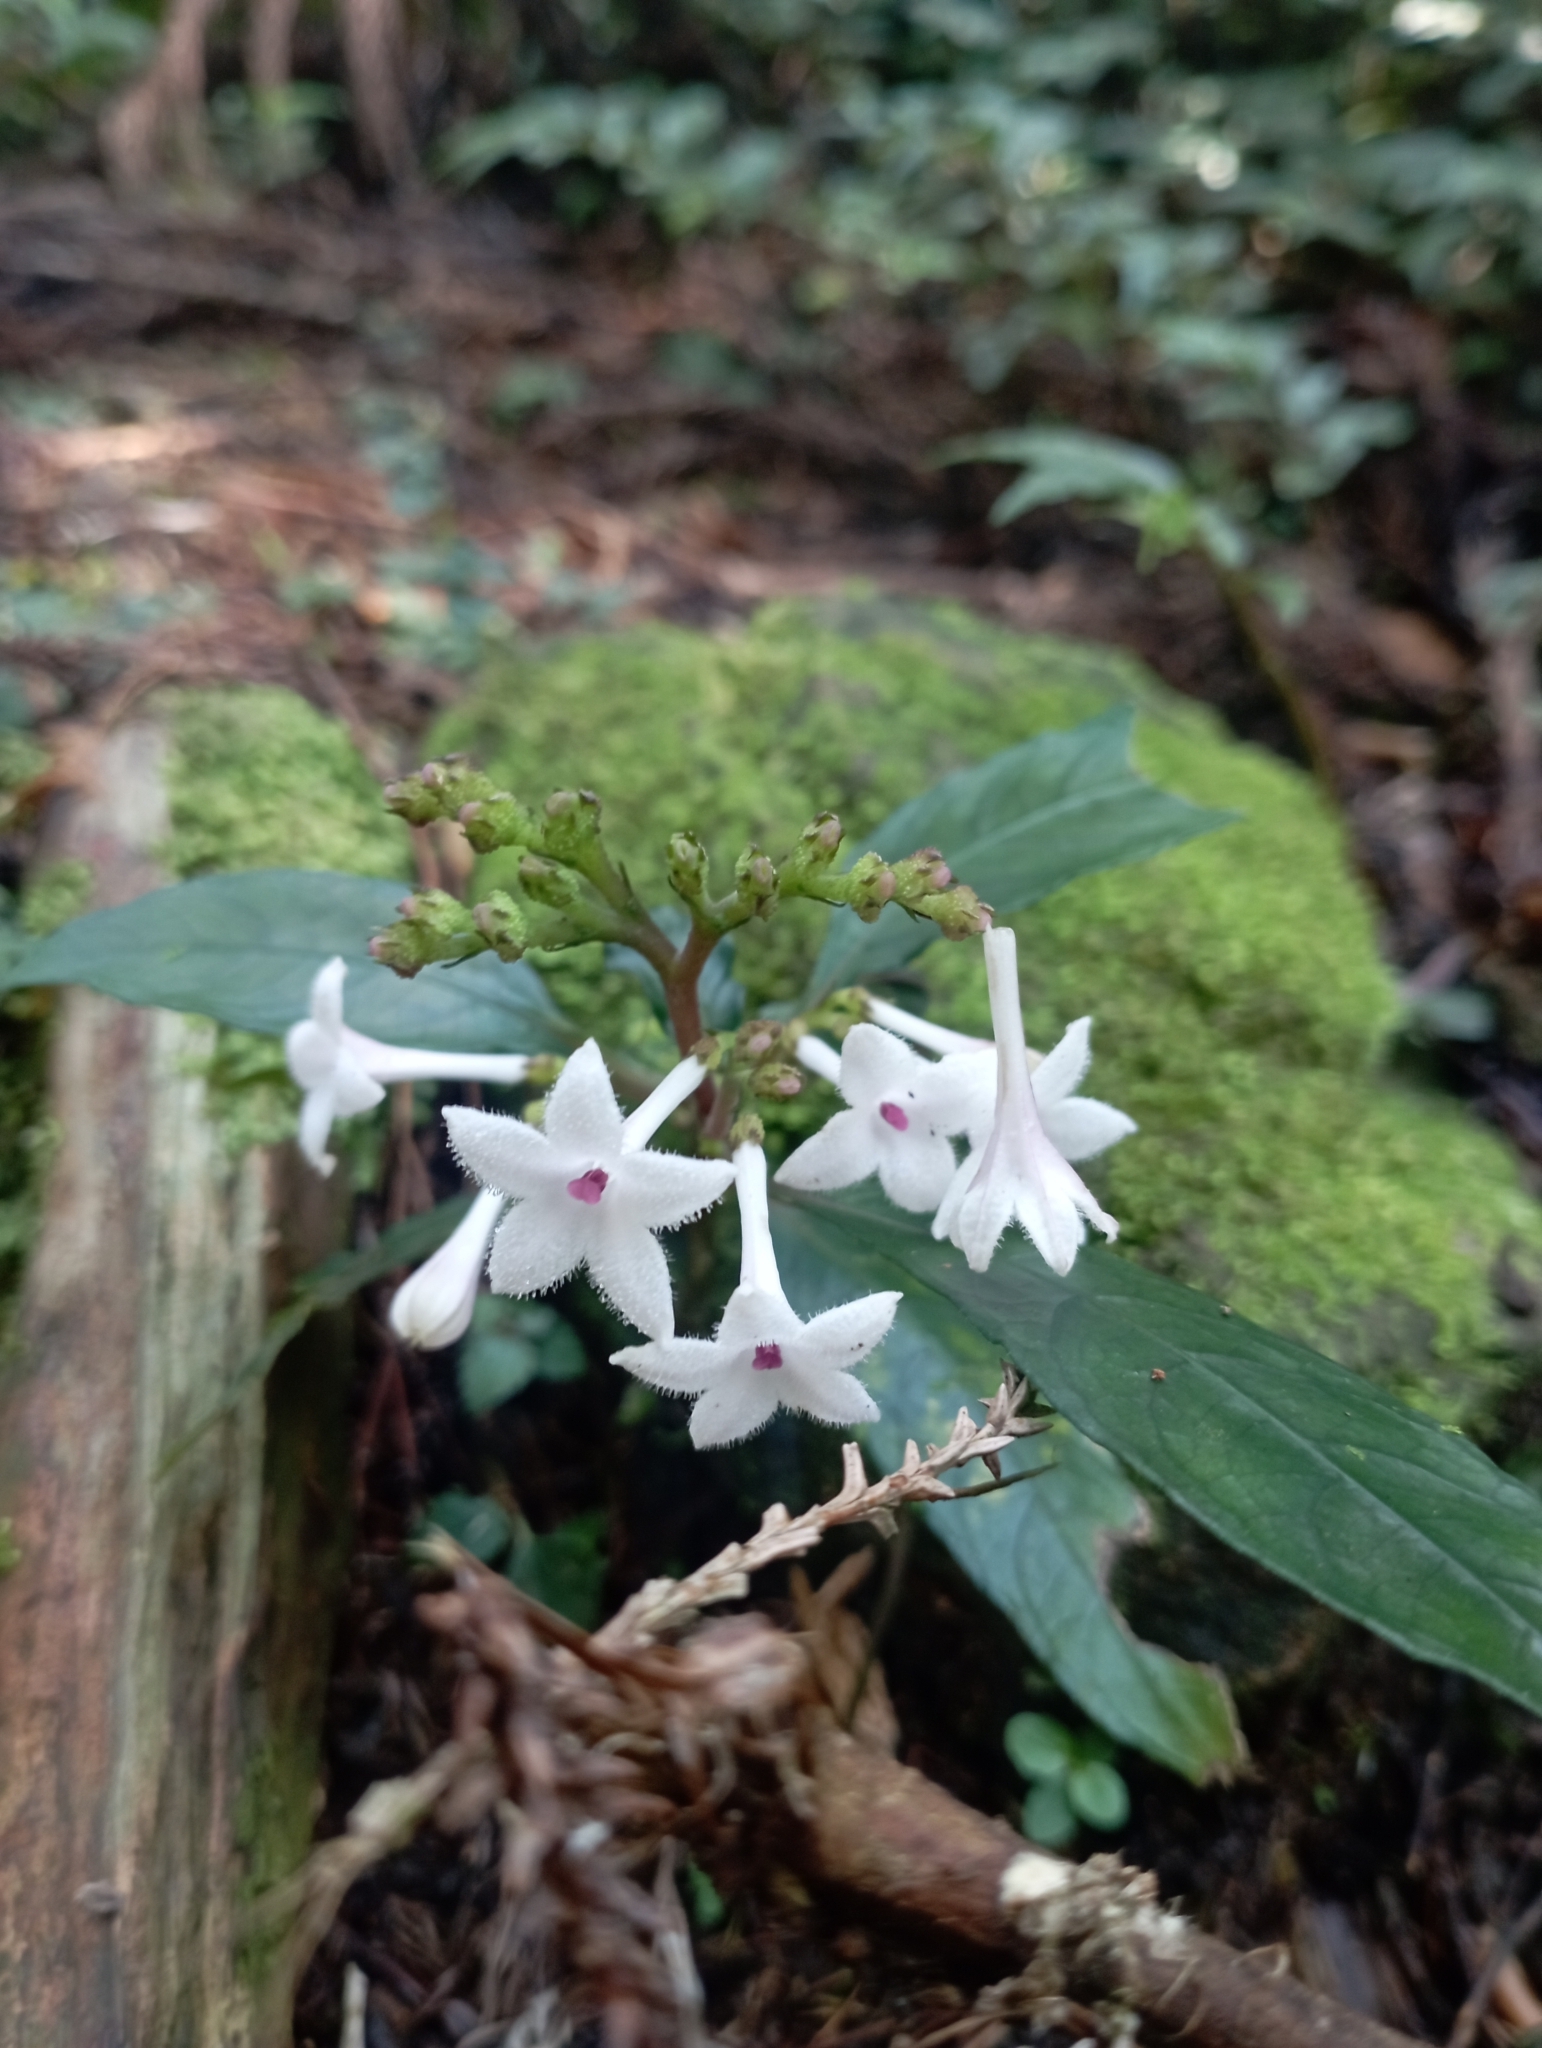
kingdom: Plantae
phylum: Tracheophyta
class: Magnoliopsida
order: Gentianales
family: Rubiaceae
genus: Ophiorrhiza
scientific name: Ophiorrhiza hayatana
